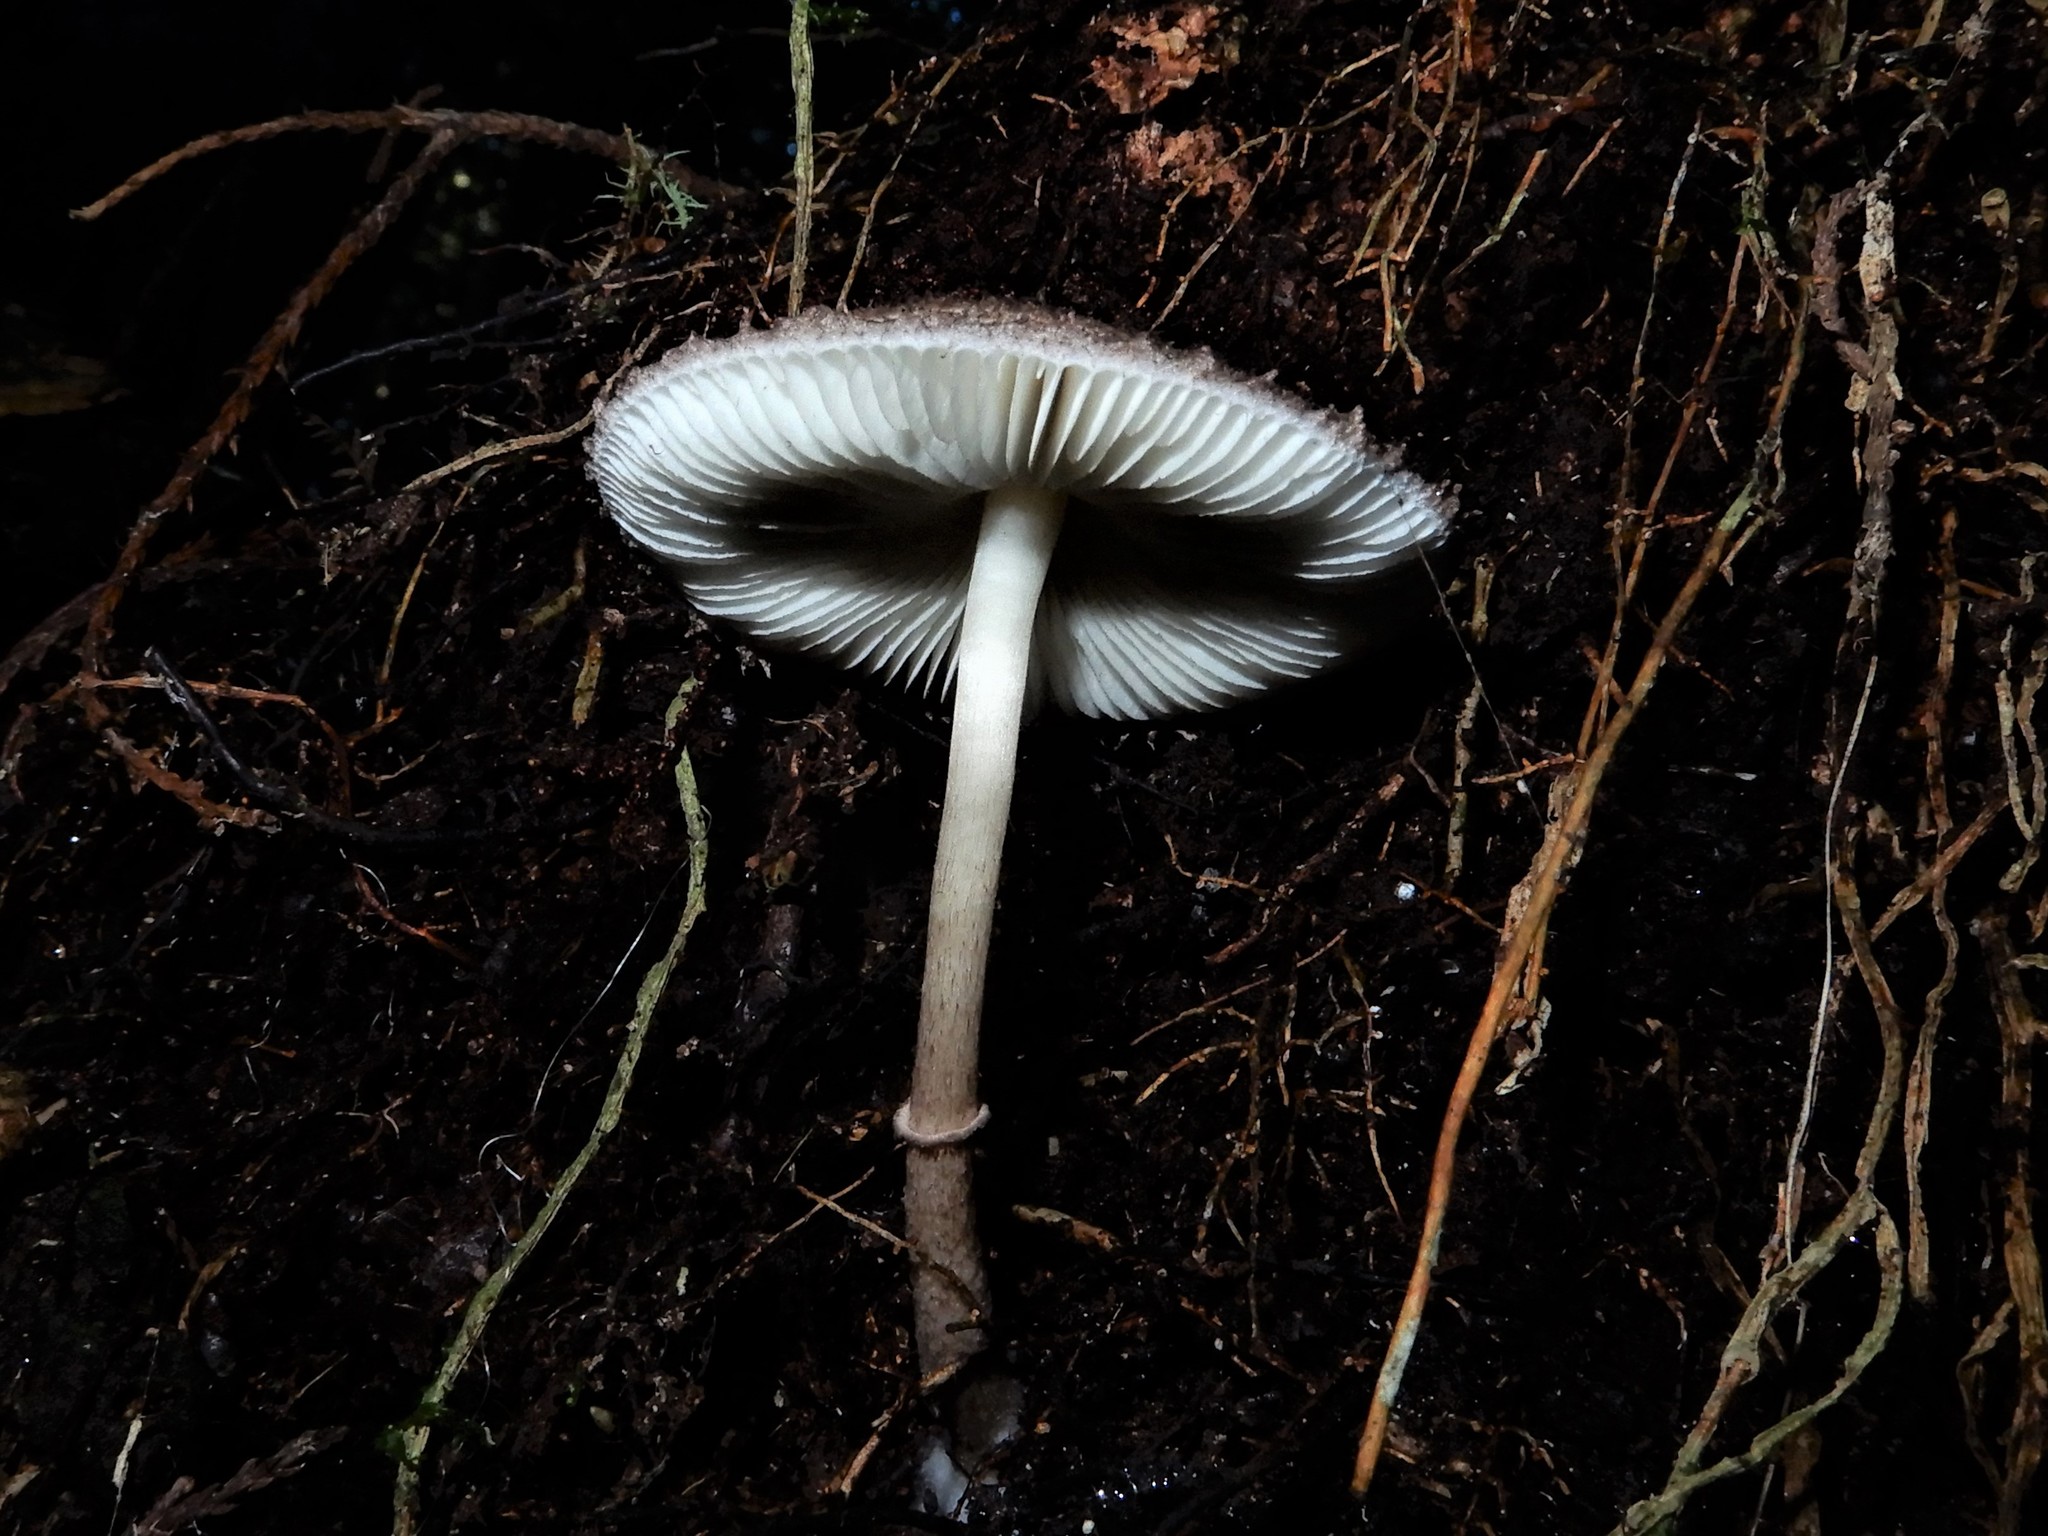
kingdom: Fungi
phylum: Basidiomycota
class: Agaricomycetes
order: Agaricales
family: Agaricaceae
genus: Leucoagaricus
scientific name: Leucoagaricus
